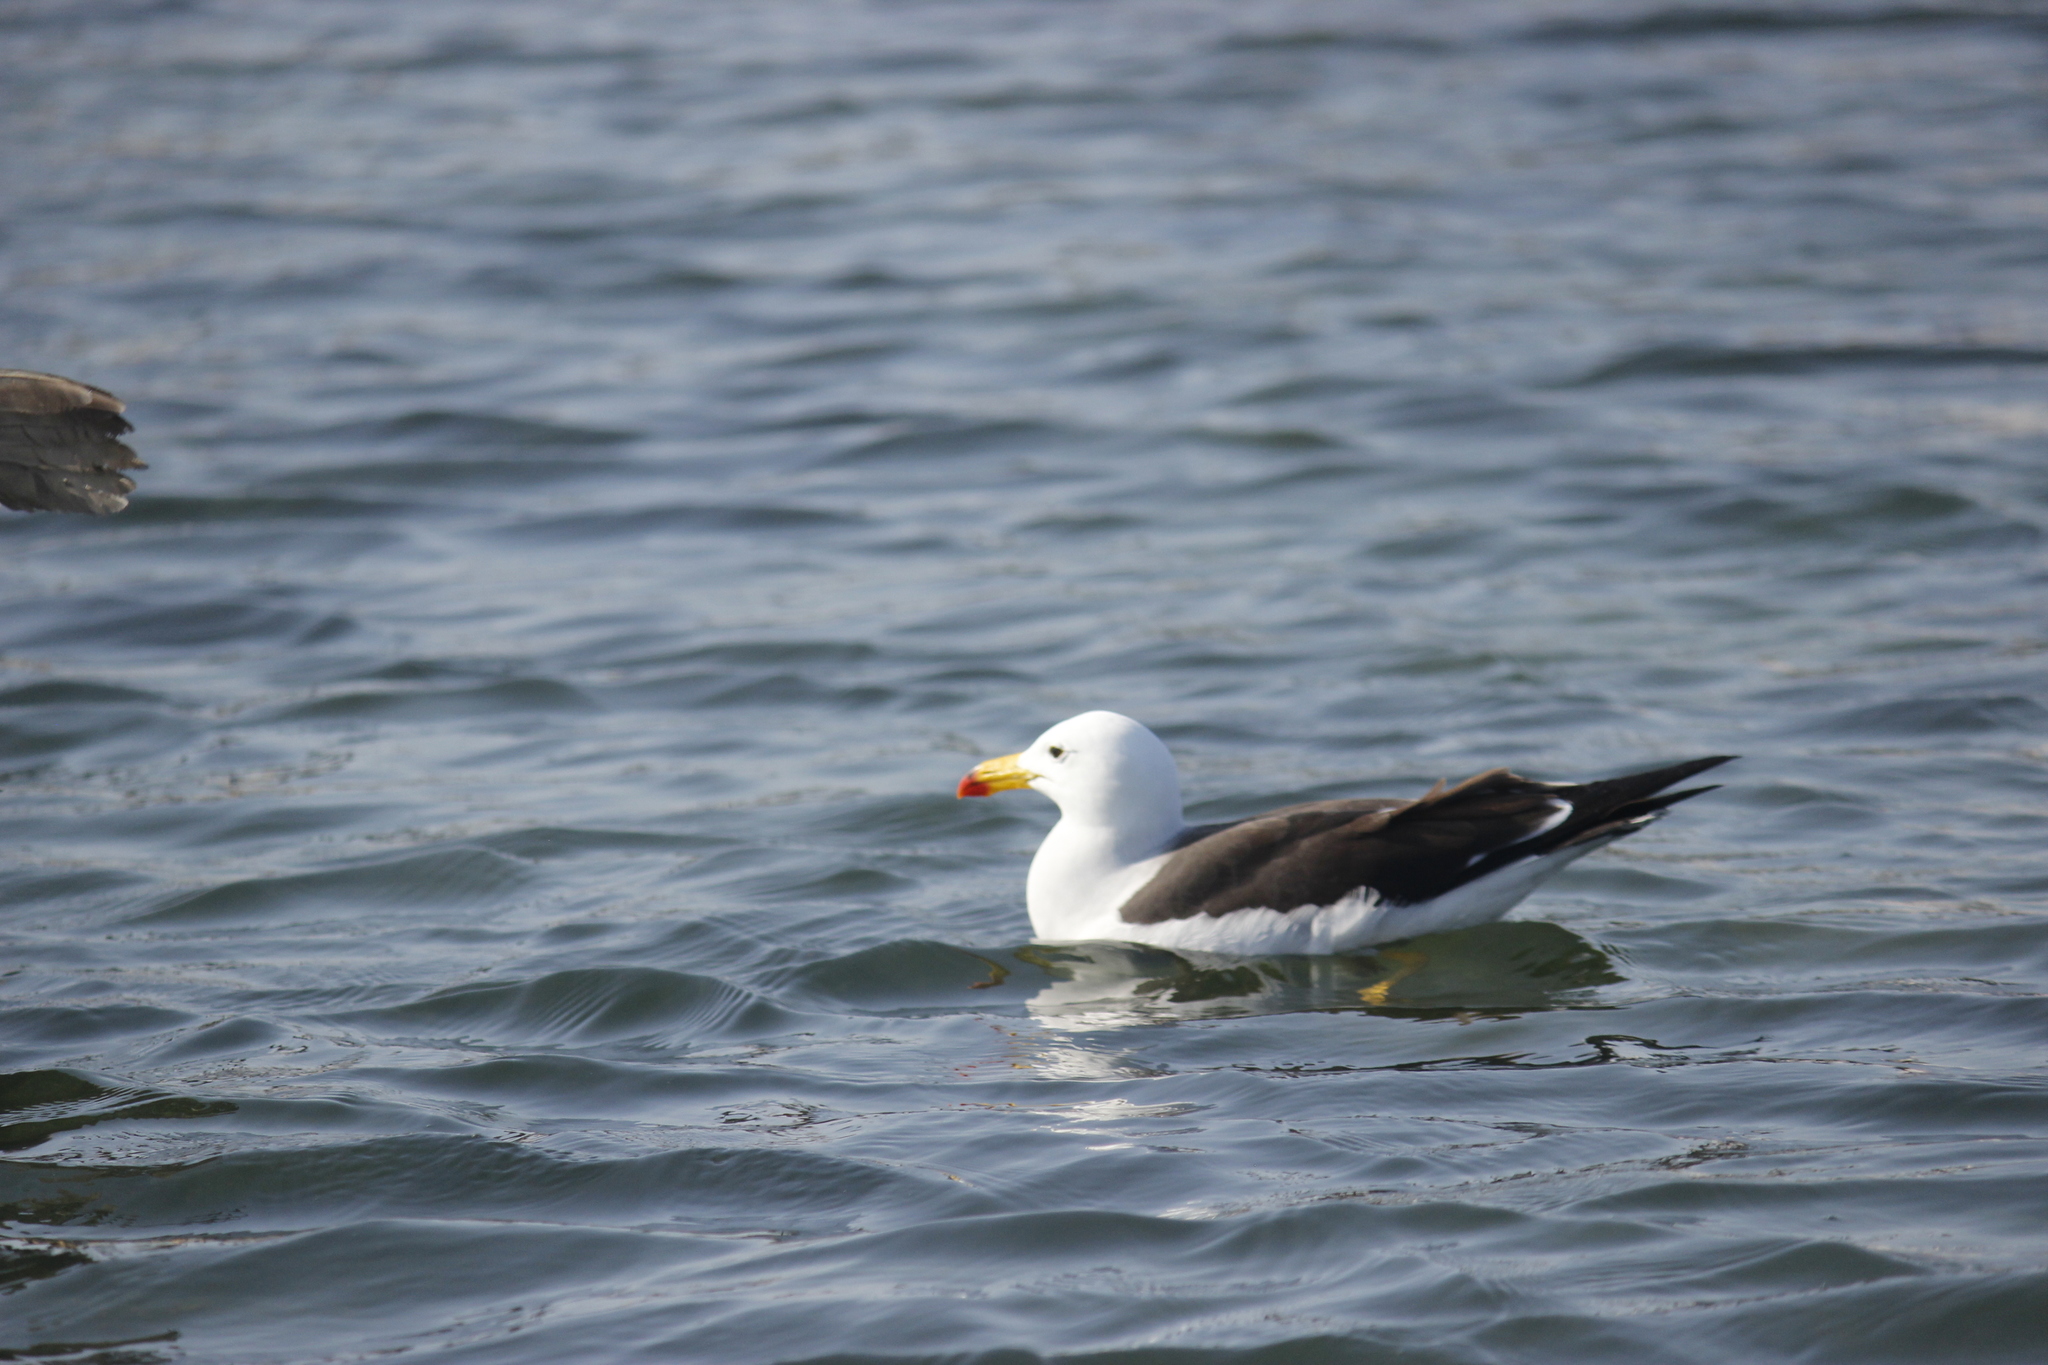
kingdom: Animalia
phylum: Chordata
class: Aves
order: Charadriiformes
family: Laridae
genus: Larus
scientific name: Larus belcheri
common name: Belcher's gull
